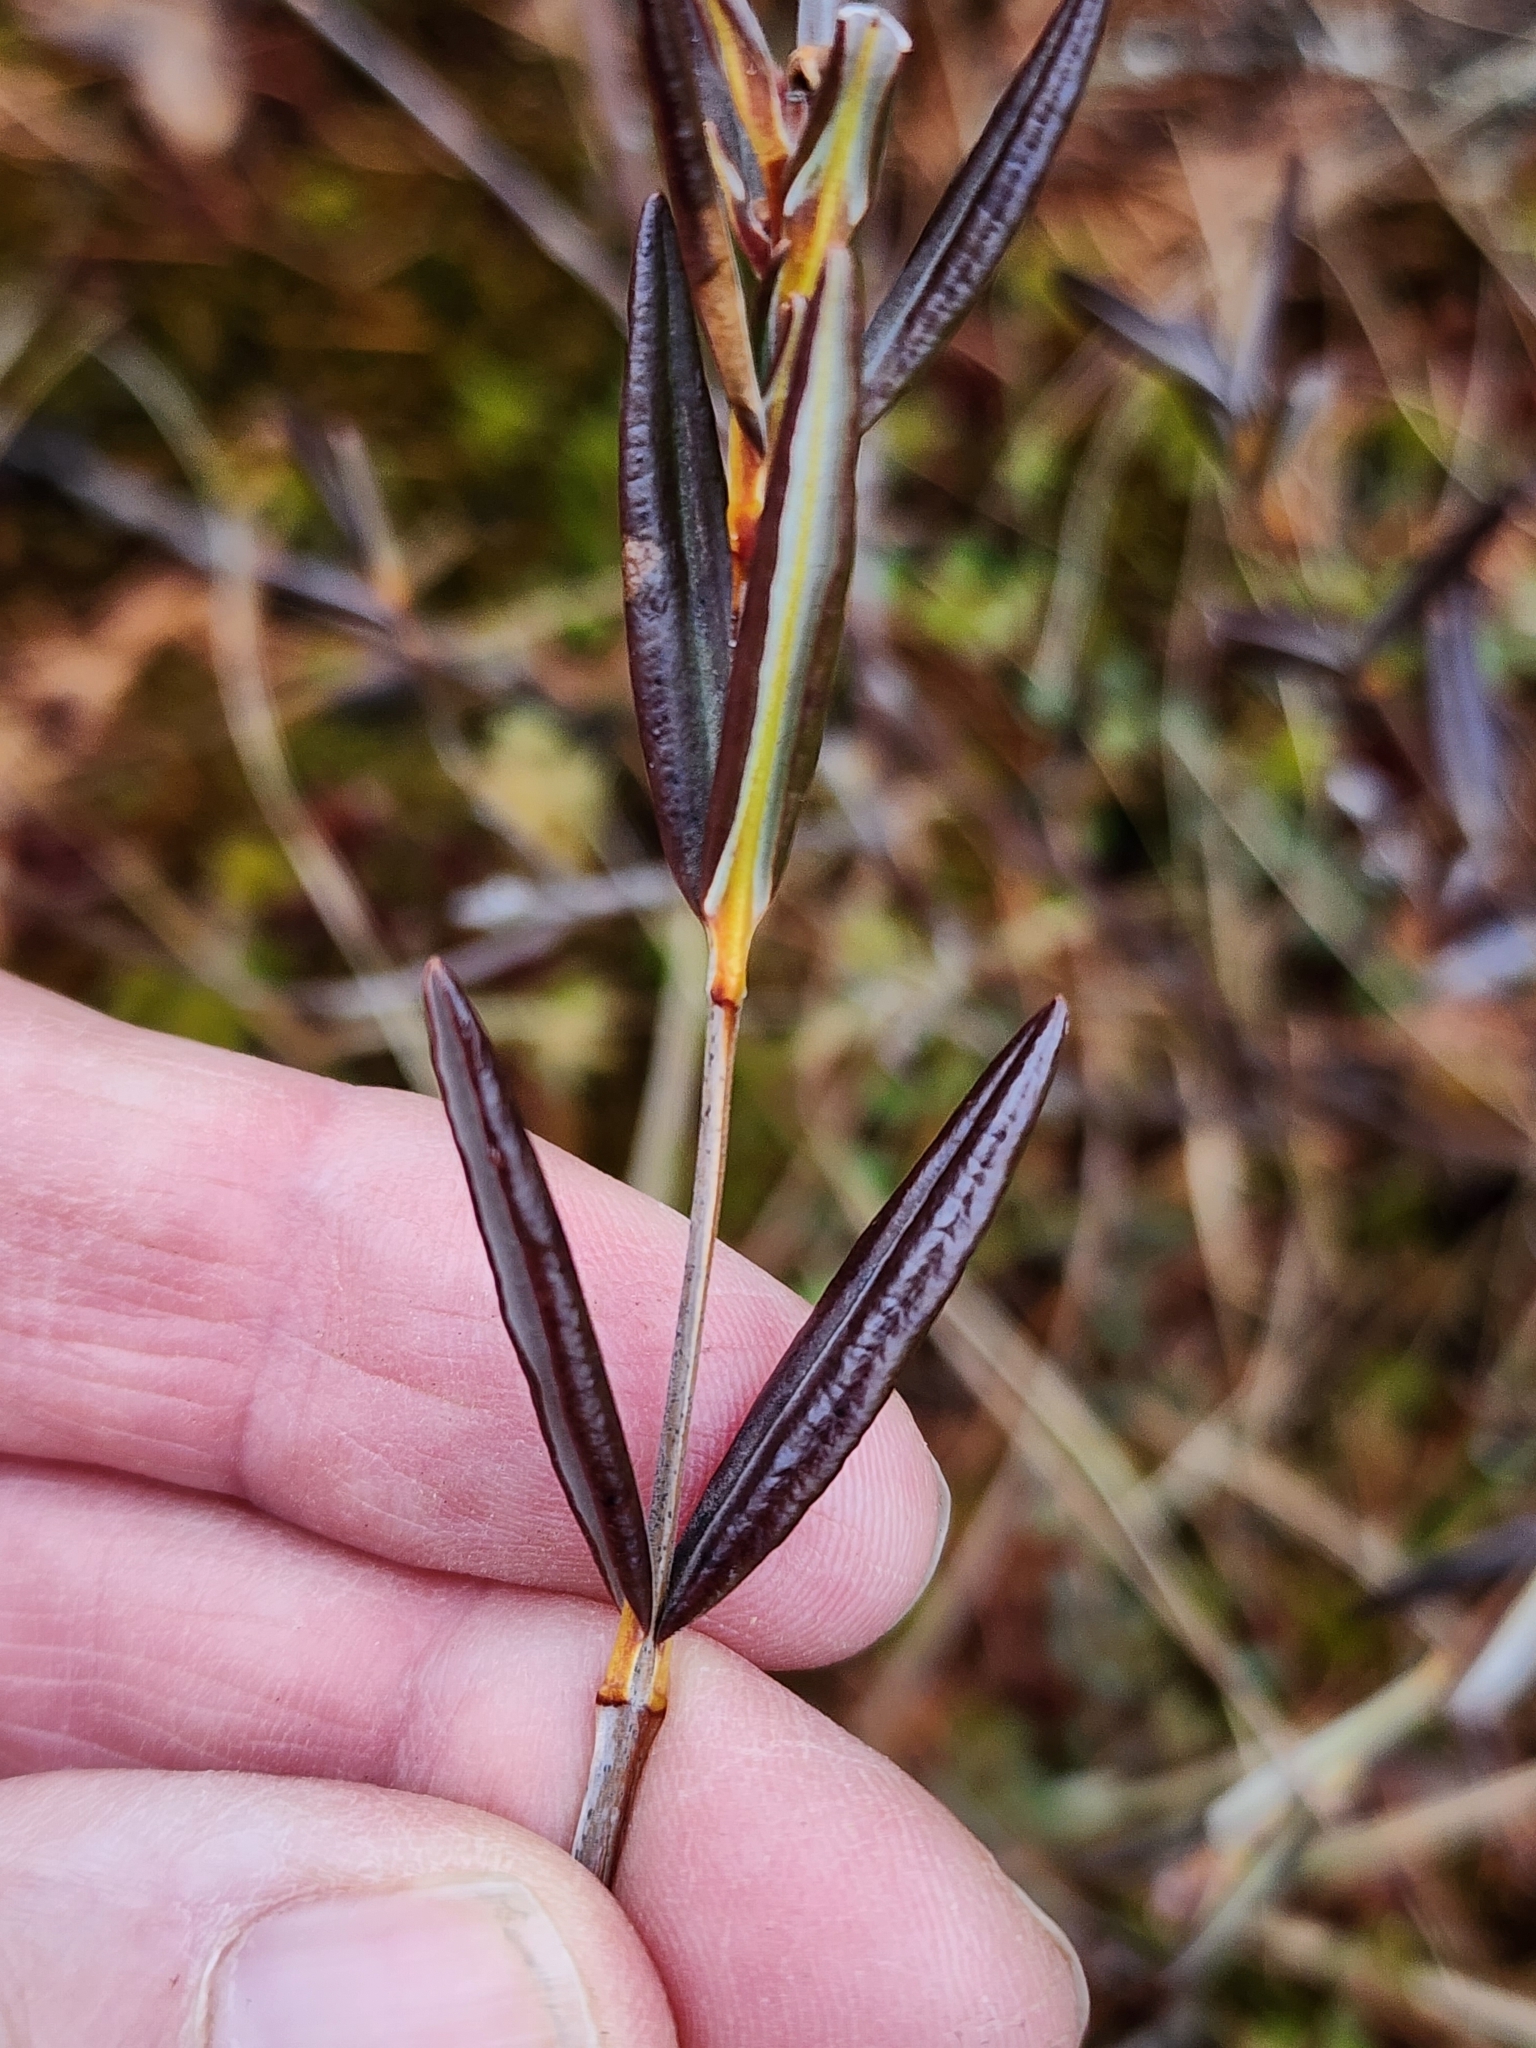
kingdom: Plantae
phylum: Tracheophyta
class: Magnoliopsida
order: Ericales
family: Ericaceae
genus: Kalmia
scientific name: Kalmia polifolia
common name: Bog-laurel
